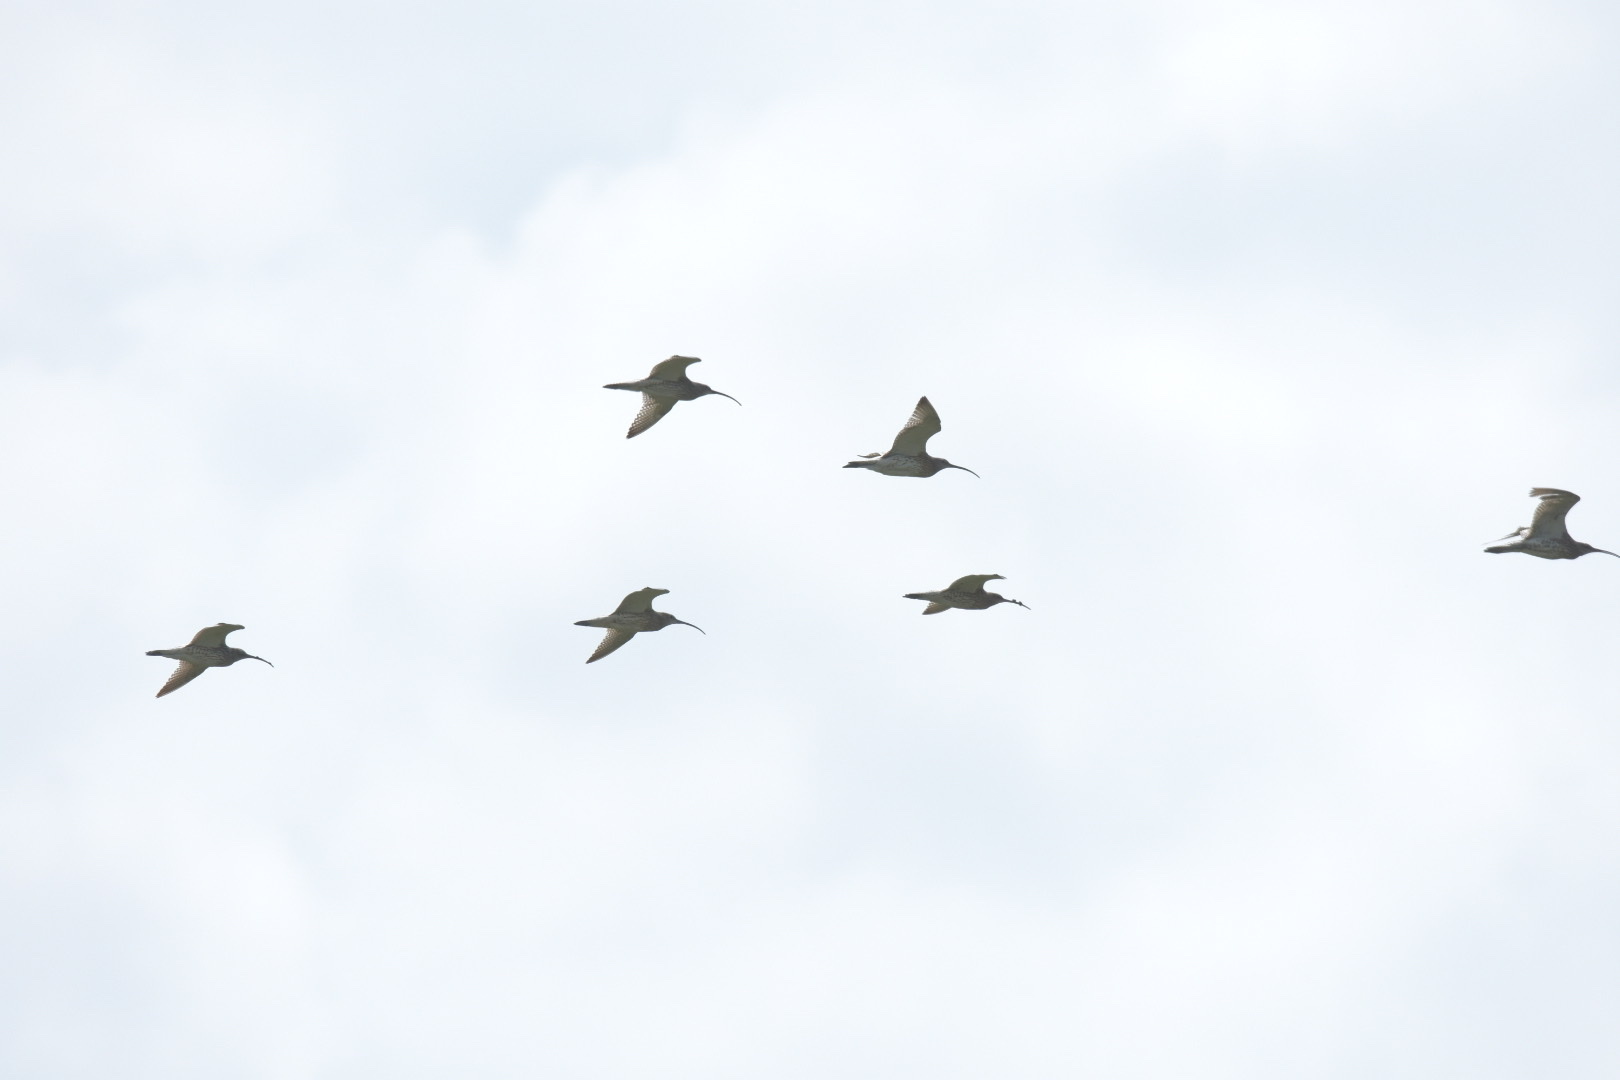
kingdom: Animalia
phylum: Chordata
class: Aves
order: Charadriiformes
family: Scolopacidae
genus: Numenius
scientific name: Numenius arquata
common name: Eurasian curlew
